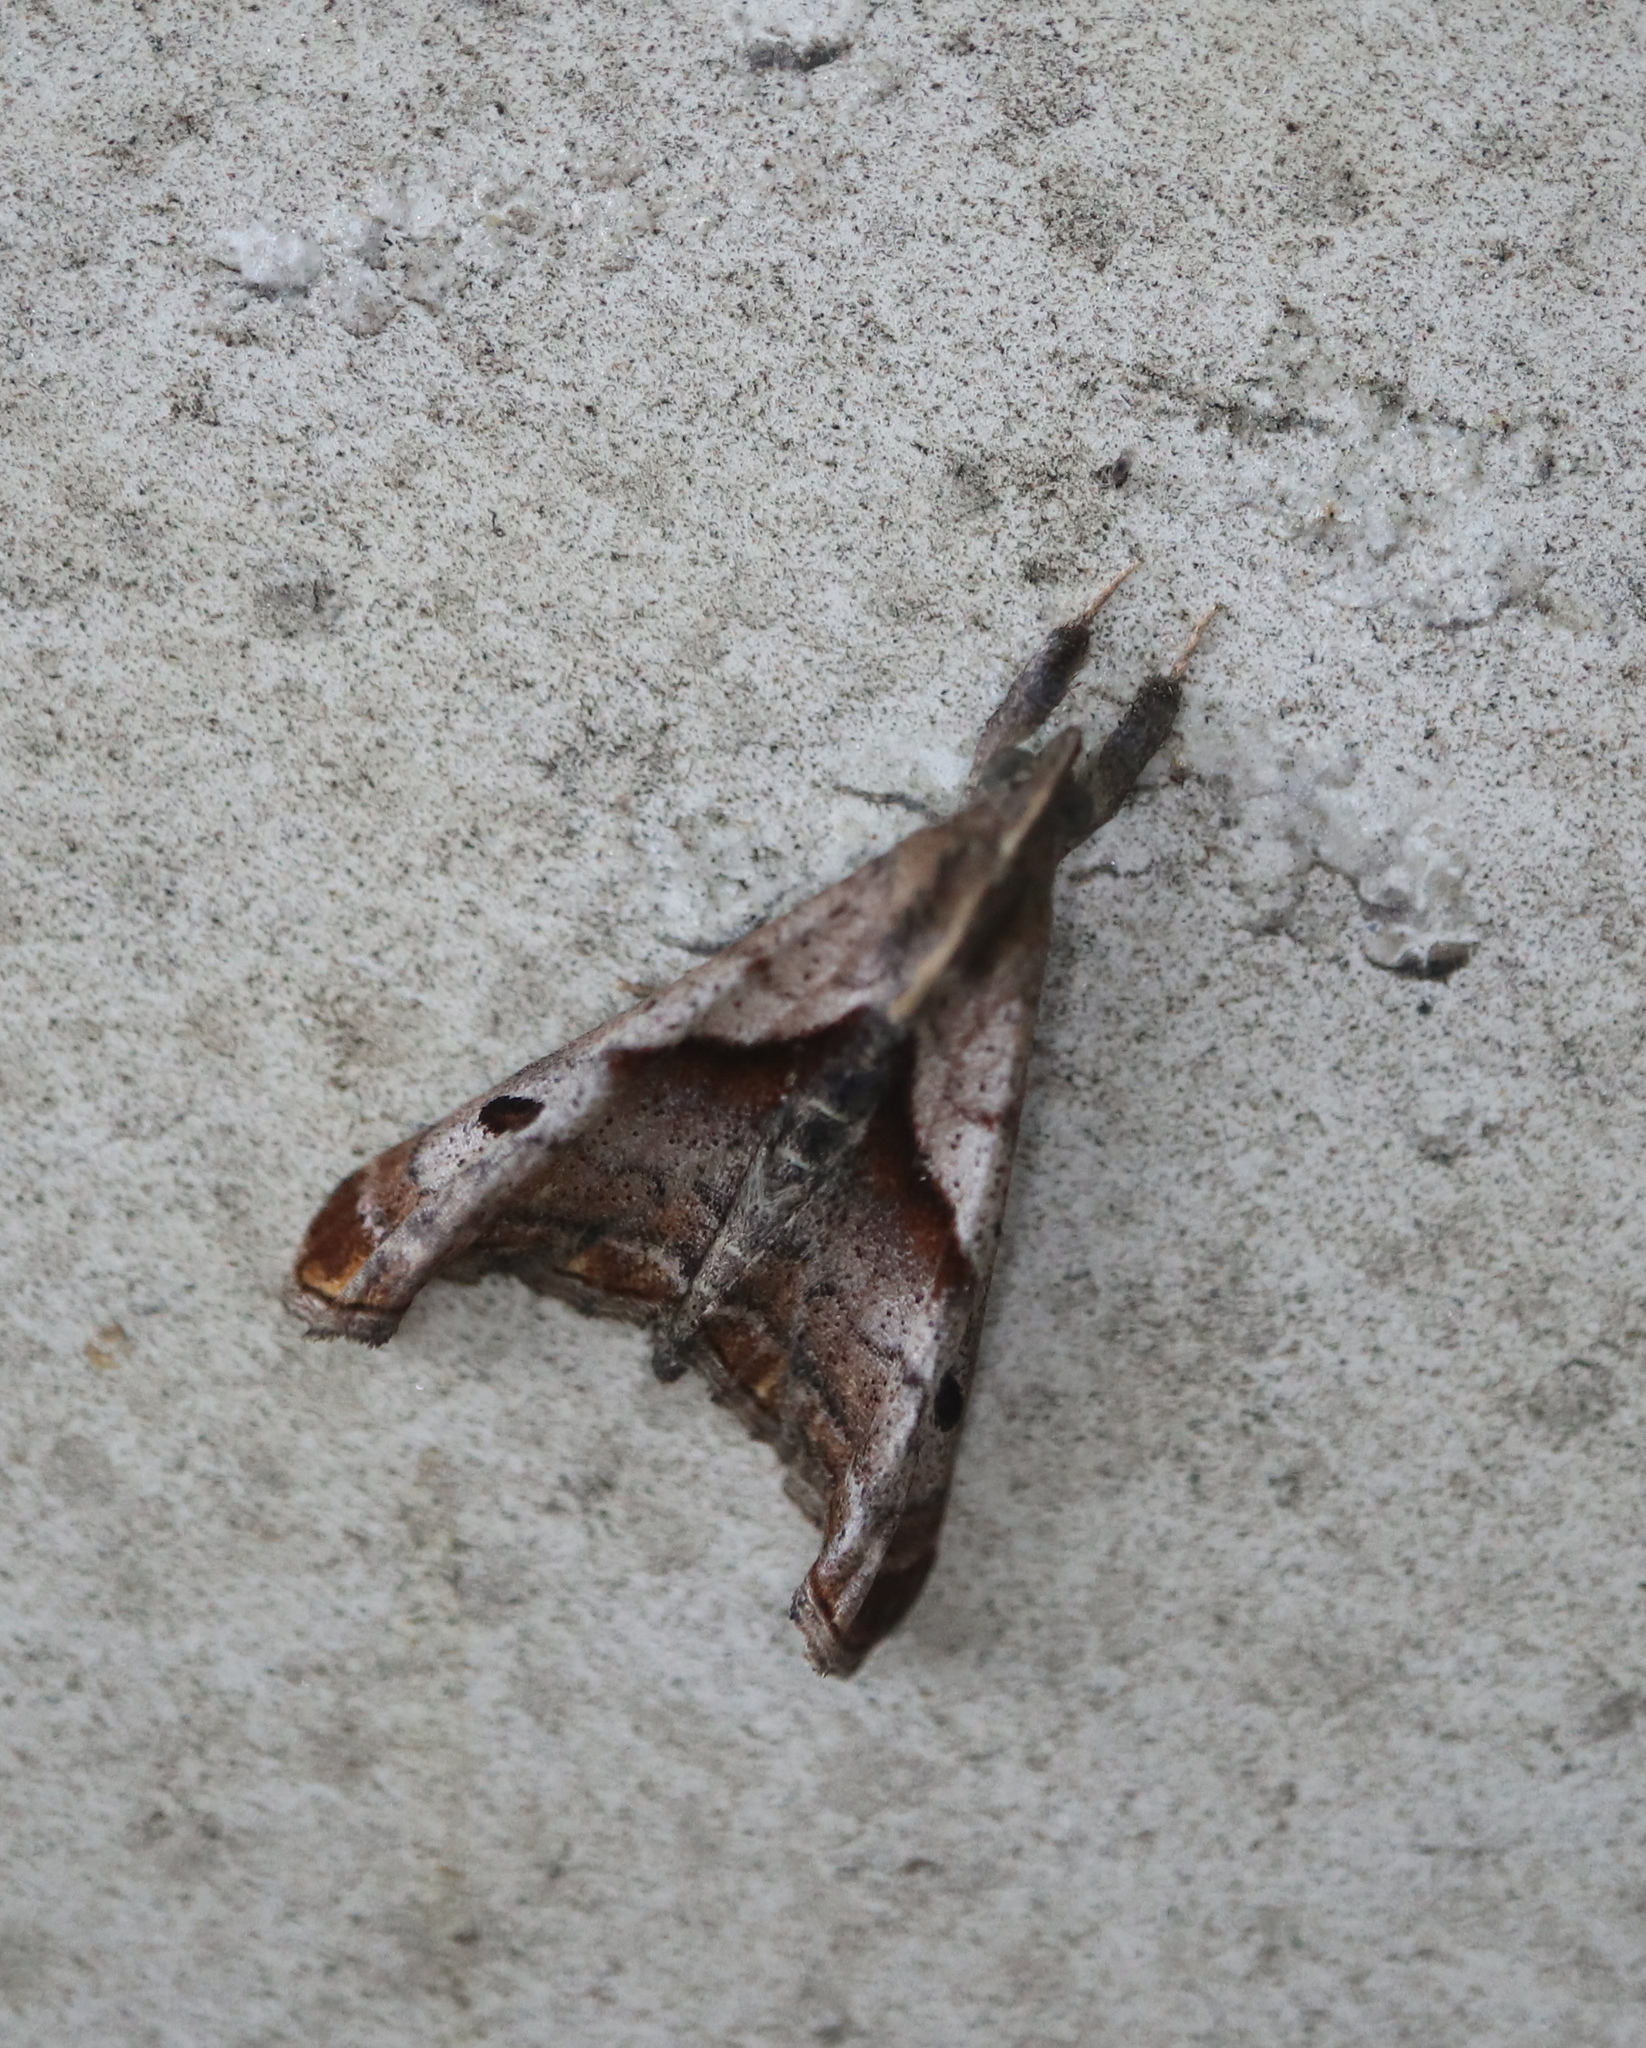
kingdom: Animalia
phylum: Arthropoda
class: Insecta
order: Lepidoptera
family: Erebidae
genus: Palthis
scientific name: Palthis angulalis
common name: Dark-spotted palthis moth
